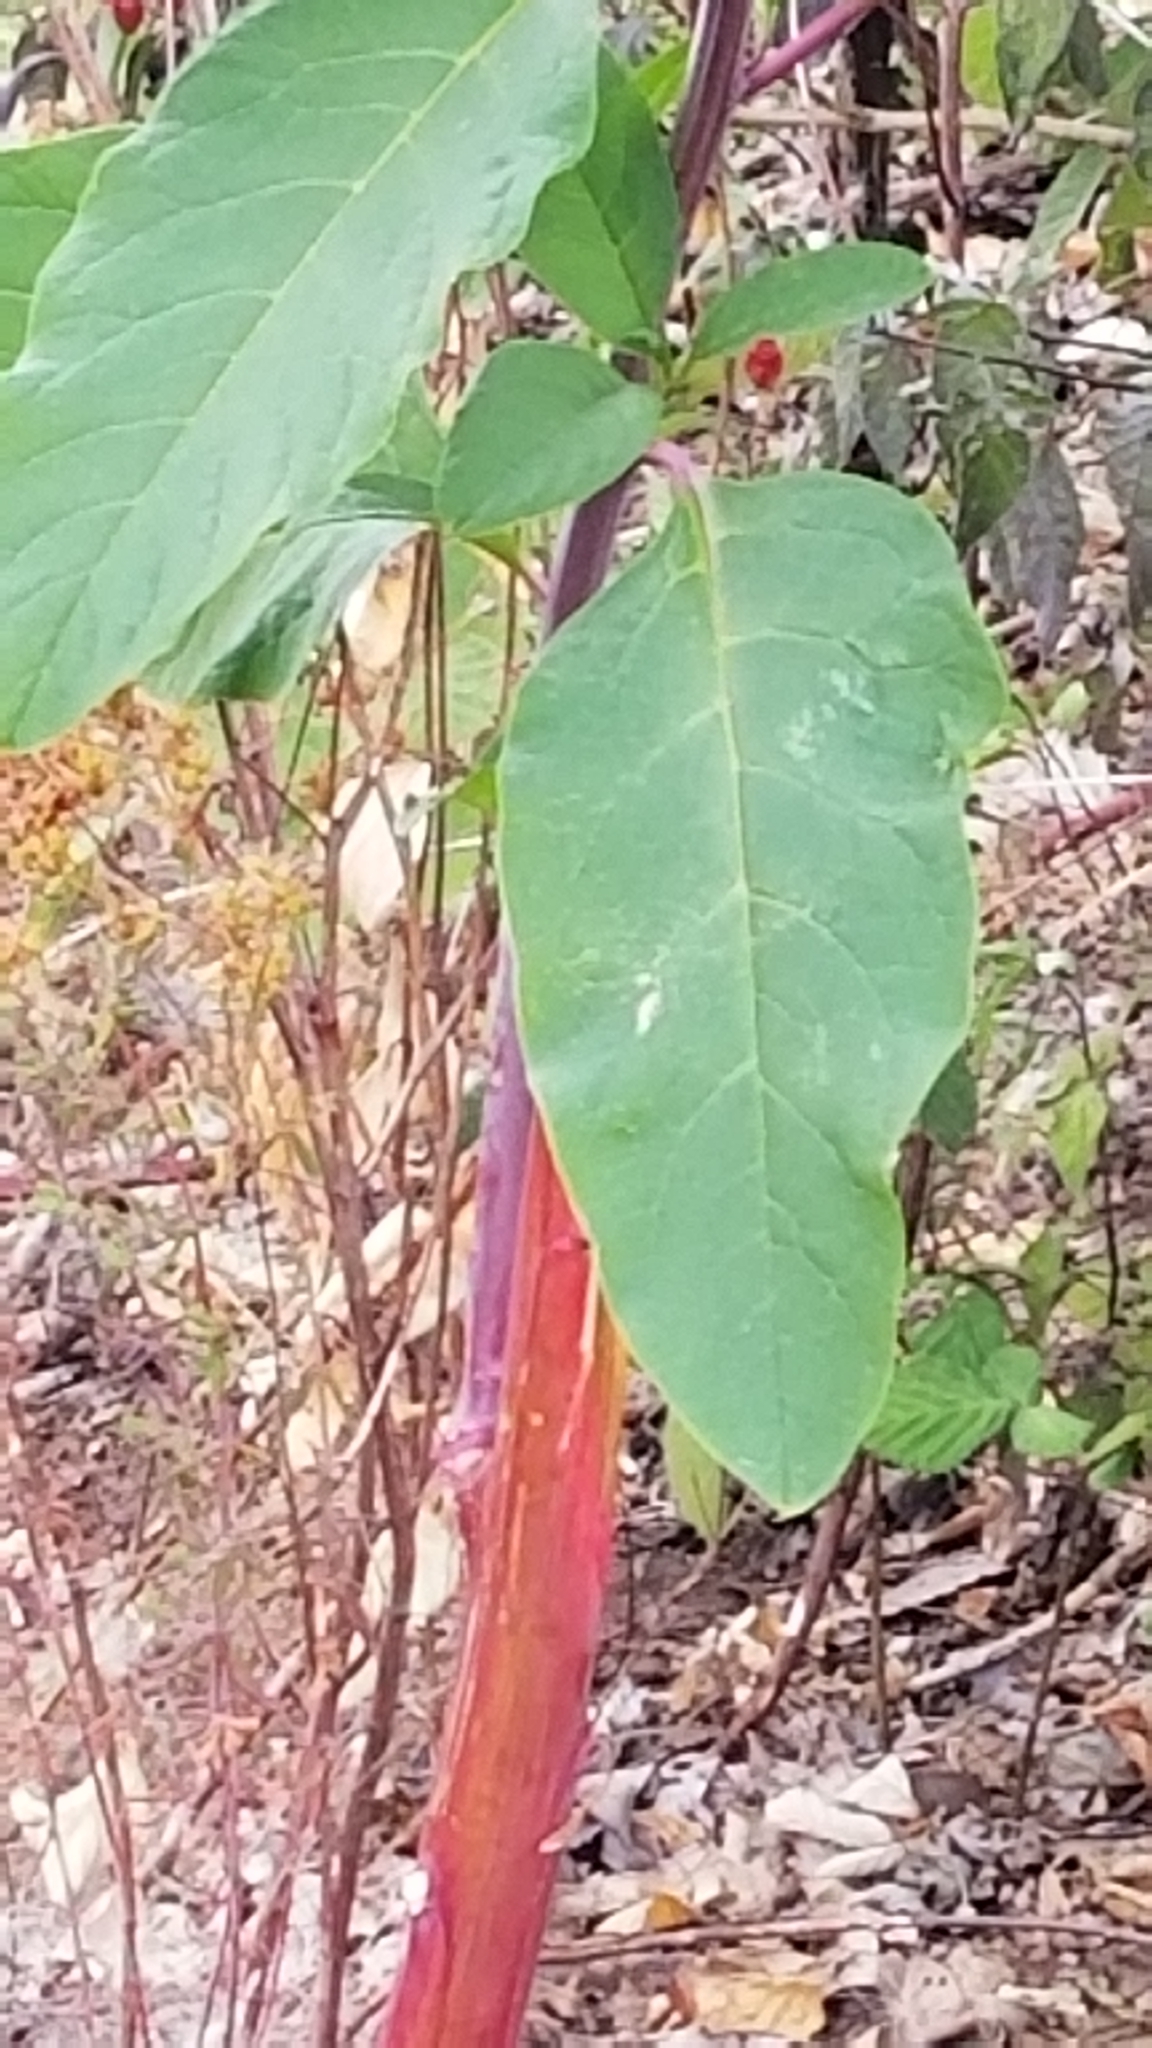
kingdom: Plantae
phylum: Tracheophyta
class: Magnoliopsida
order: Caryophyllales
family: Phytolaccaceae
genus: Phytolacca
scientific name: Phytolacca americana
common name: American pokeweed
